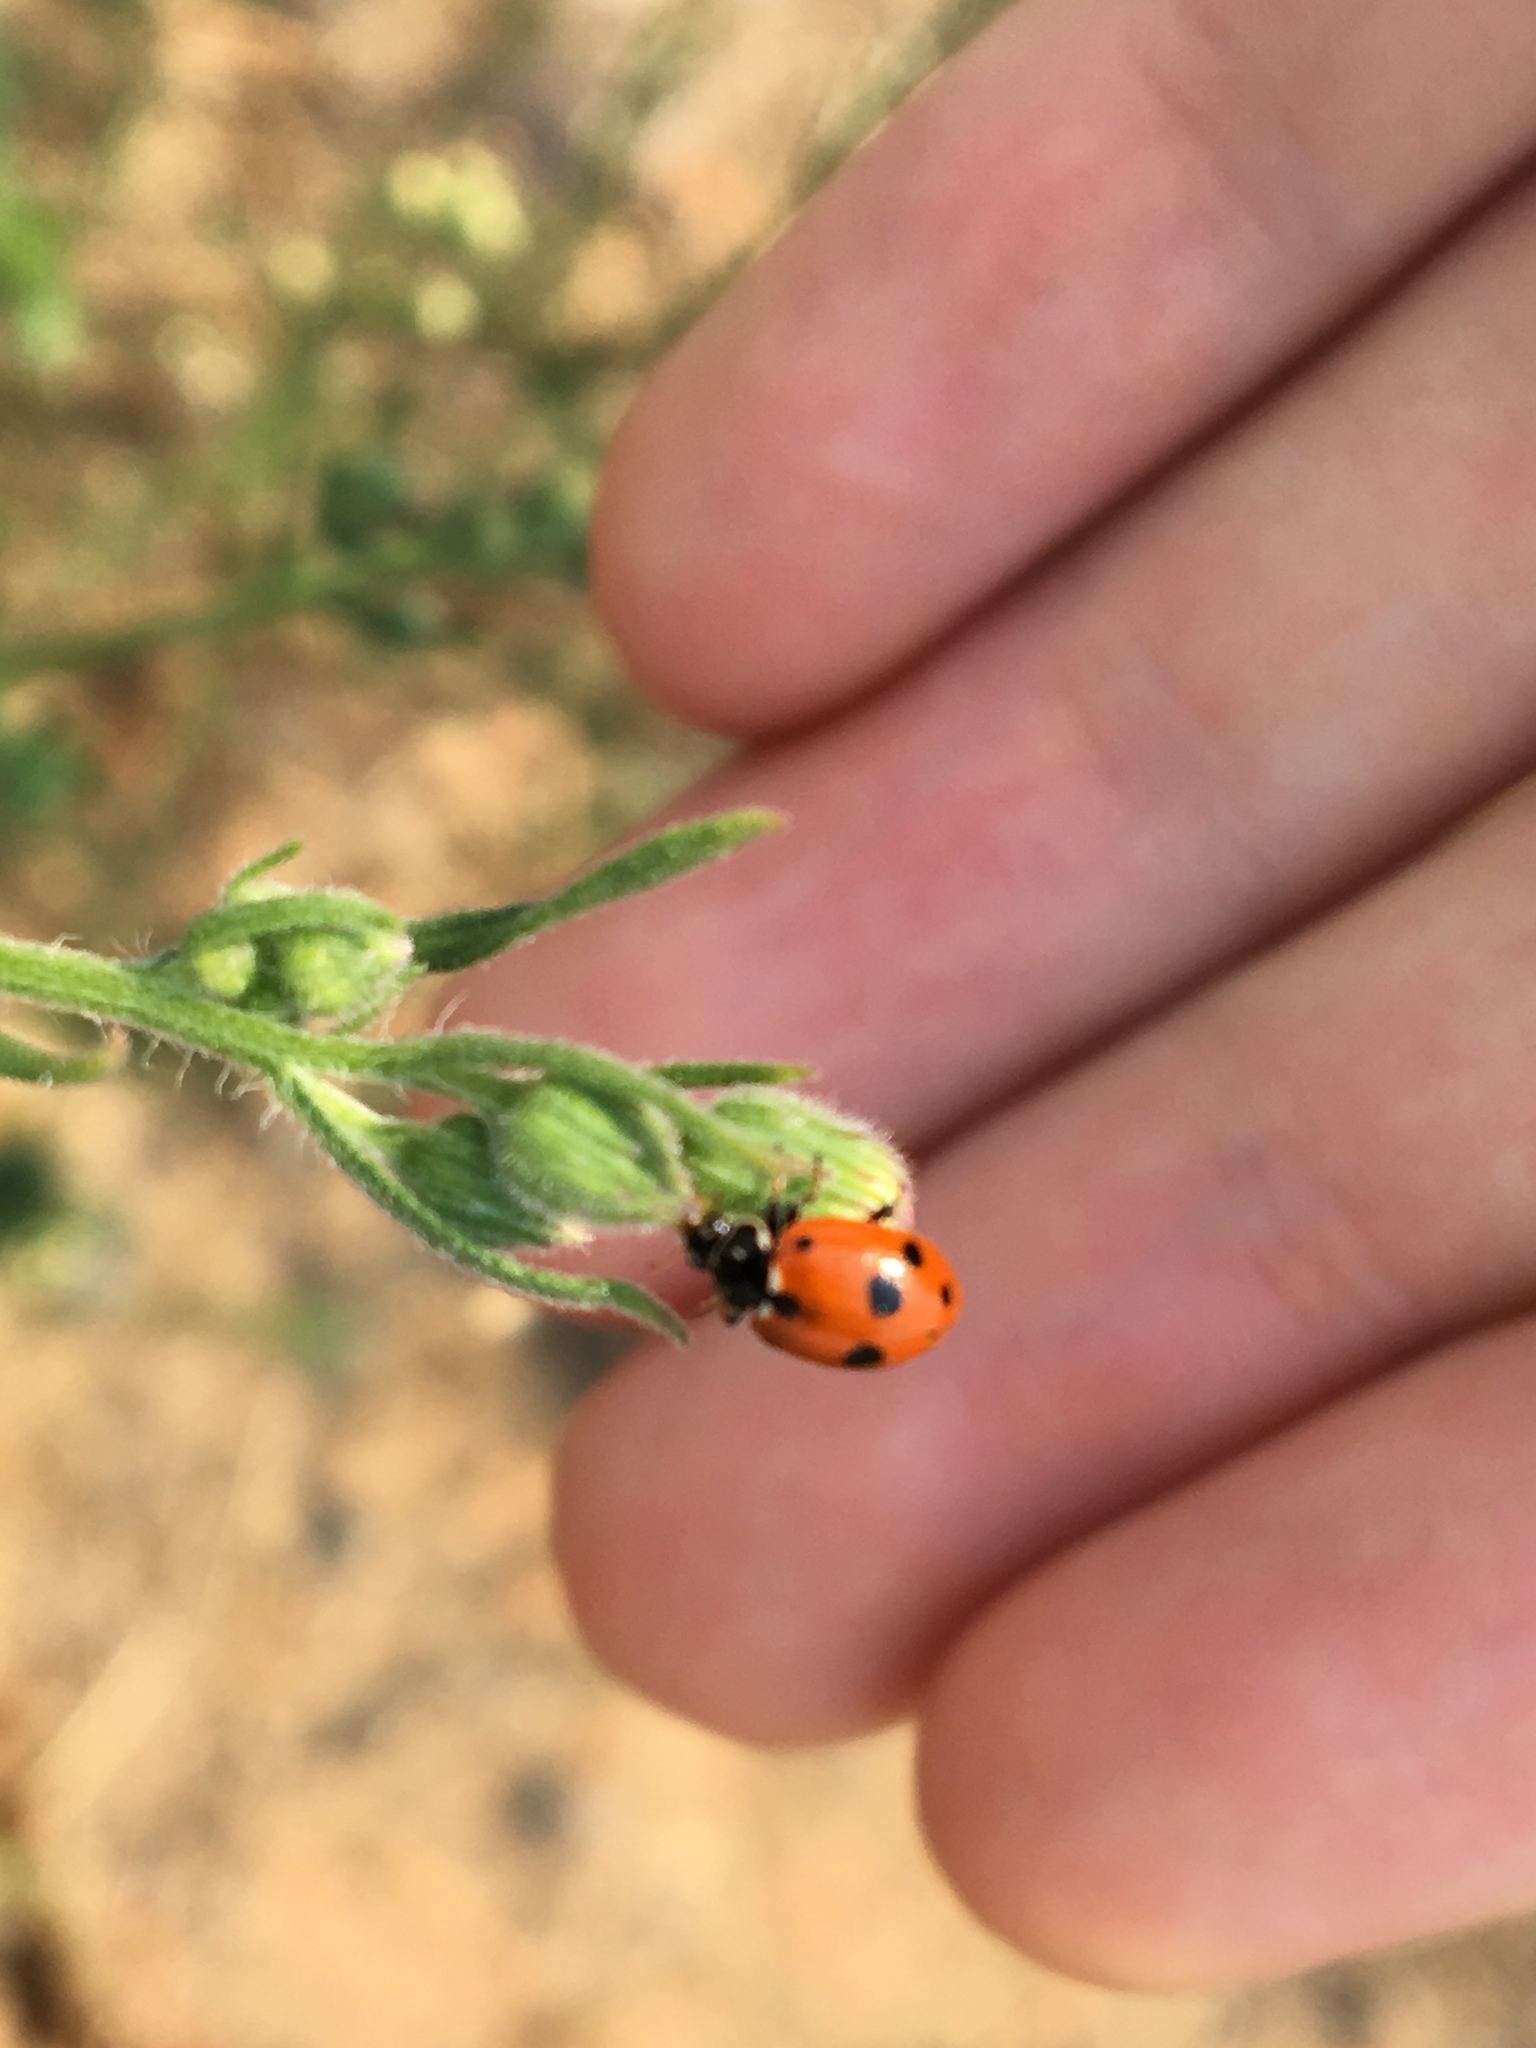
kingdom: Animalia
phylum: Arthropoda
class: Insecta
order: Coleoptera
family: Coccinellidae
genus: Hippodamia
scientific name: Hippodamia variegata
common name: Ladybird beetle
